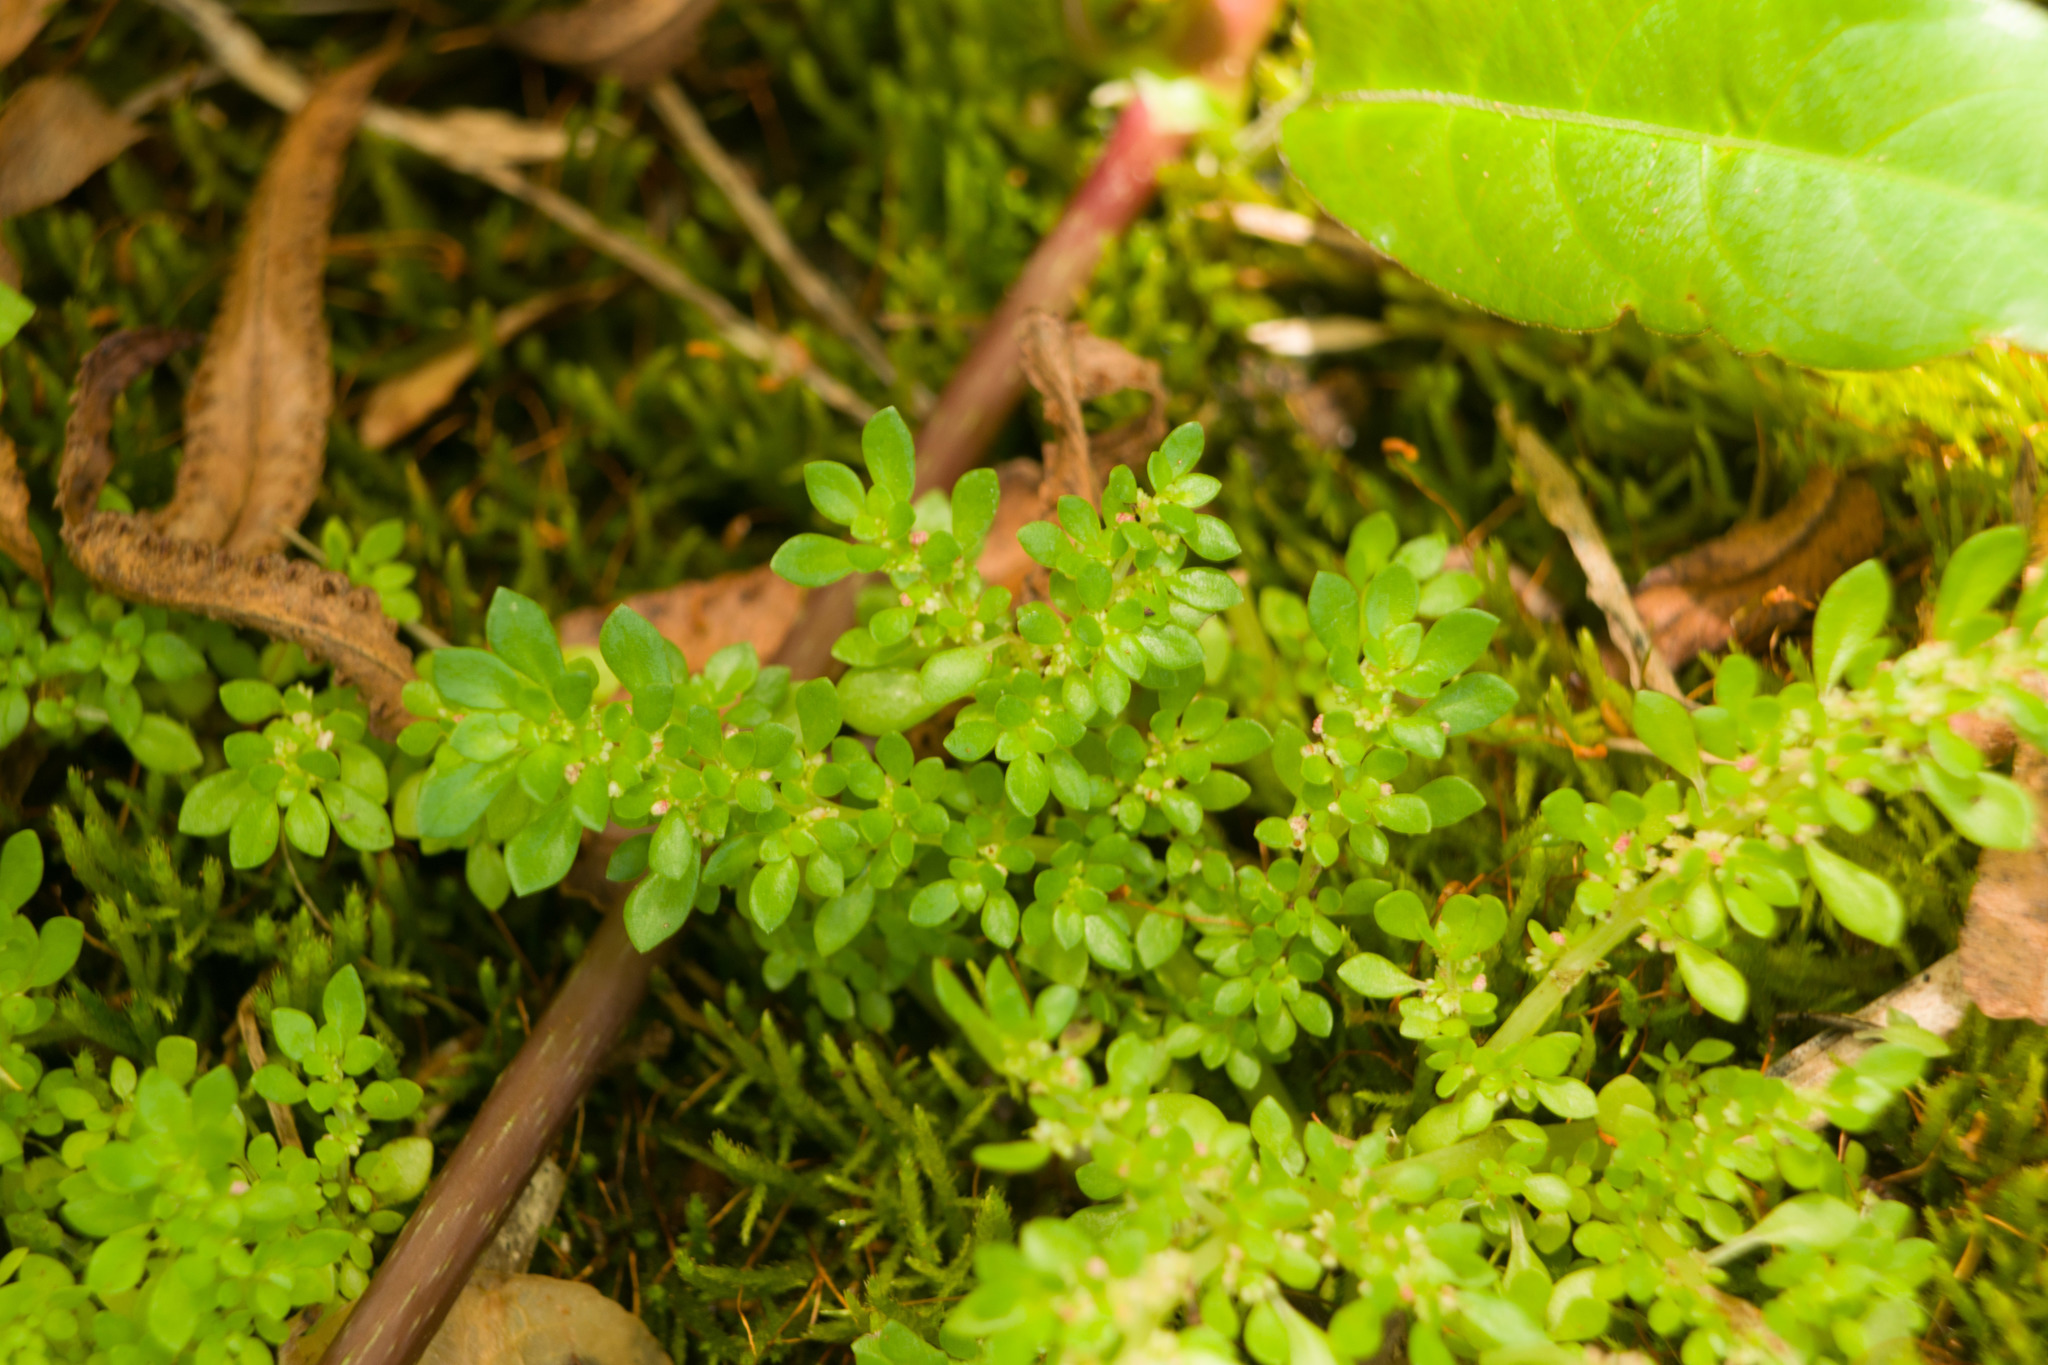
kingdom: Plantae
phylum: Tracheophyta
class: Magnoliopsida
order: Rosales
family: Urticaceae
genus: Pilea
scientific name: Pilea microphylla
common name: Artillery-plant
